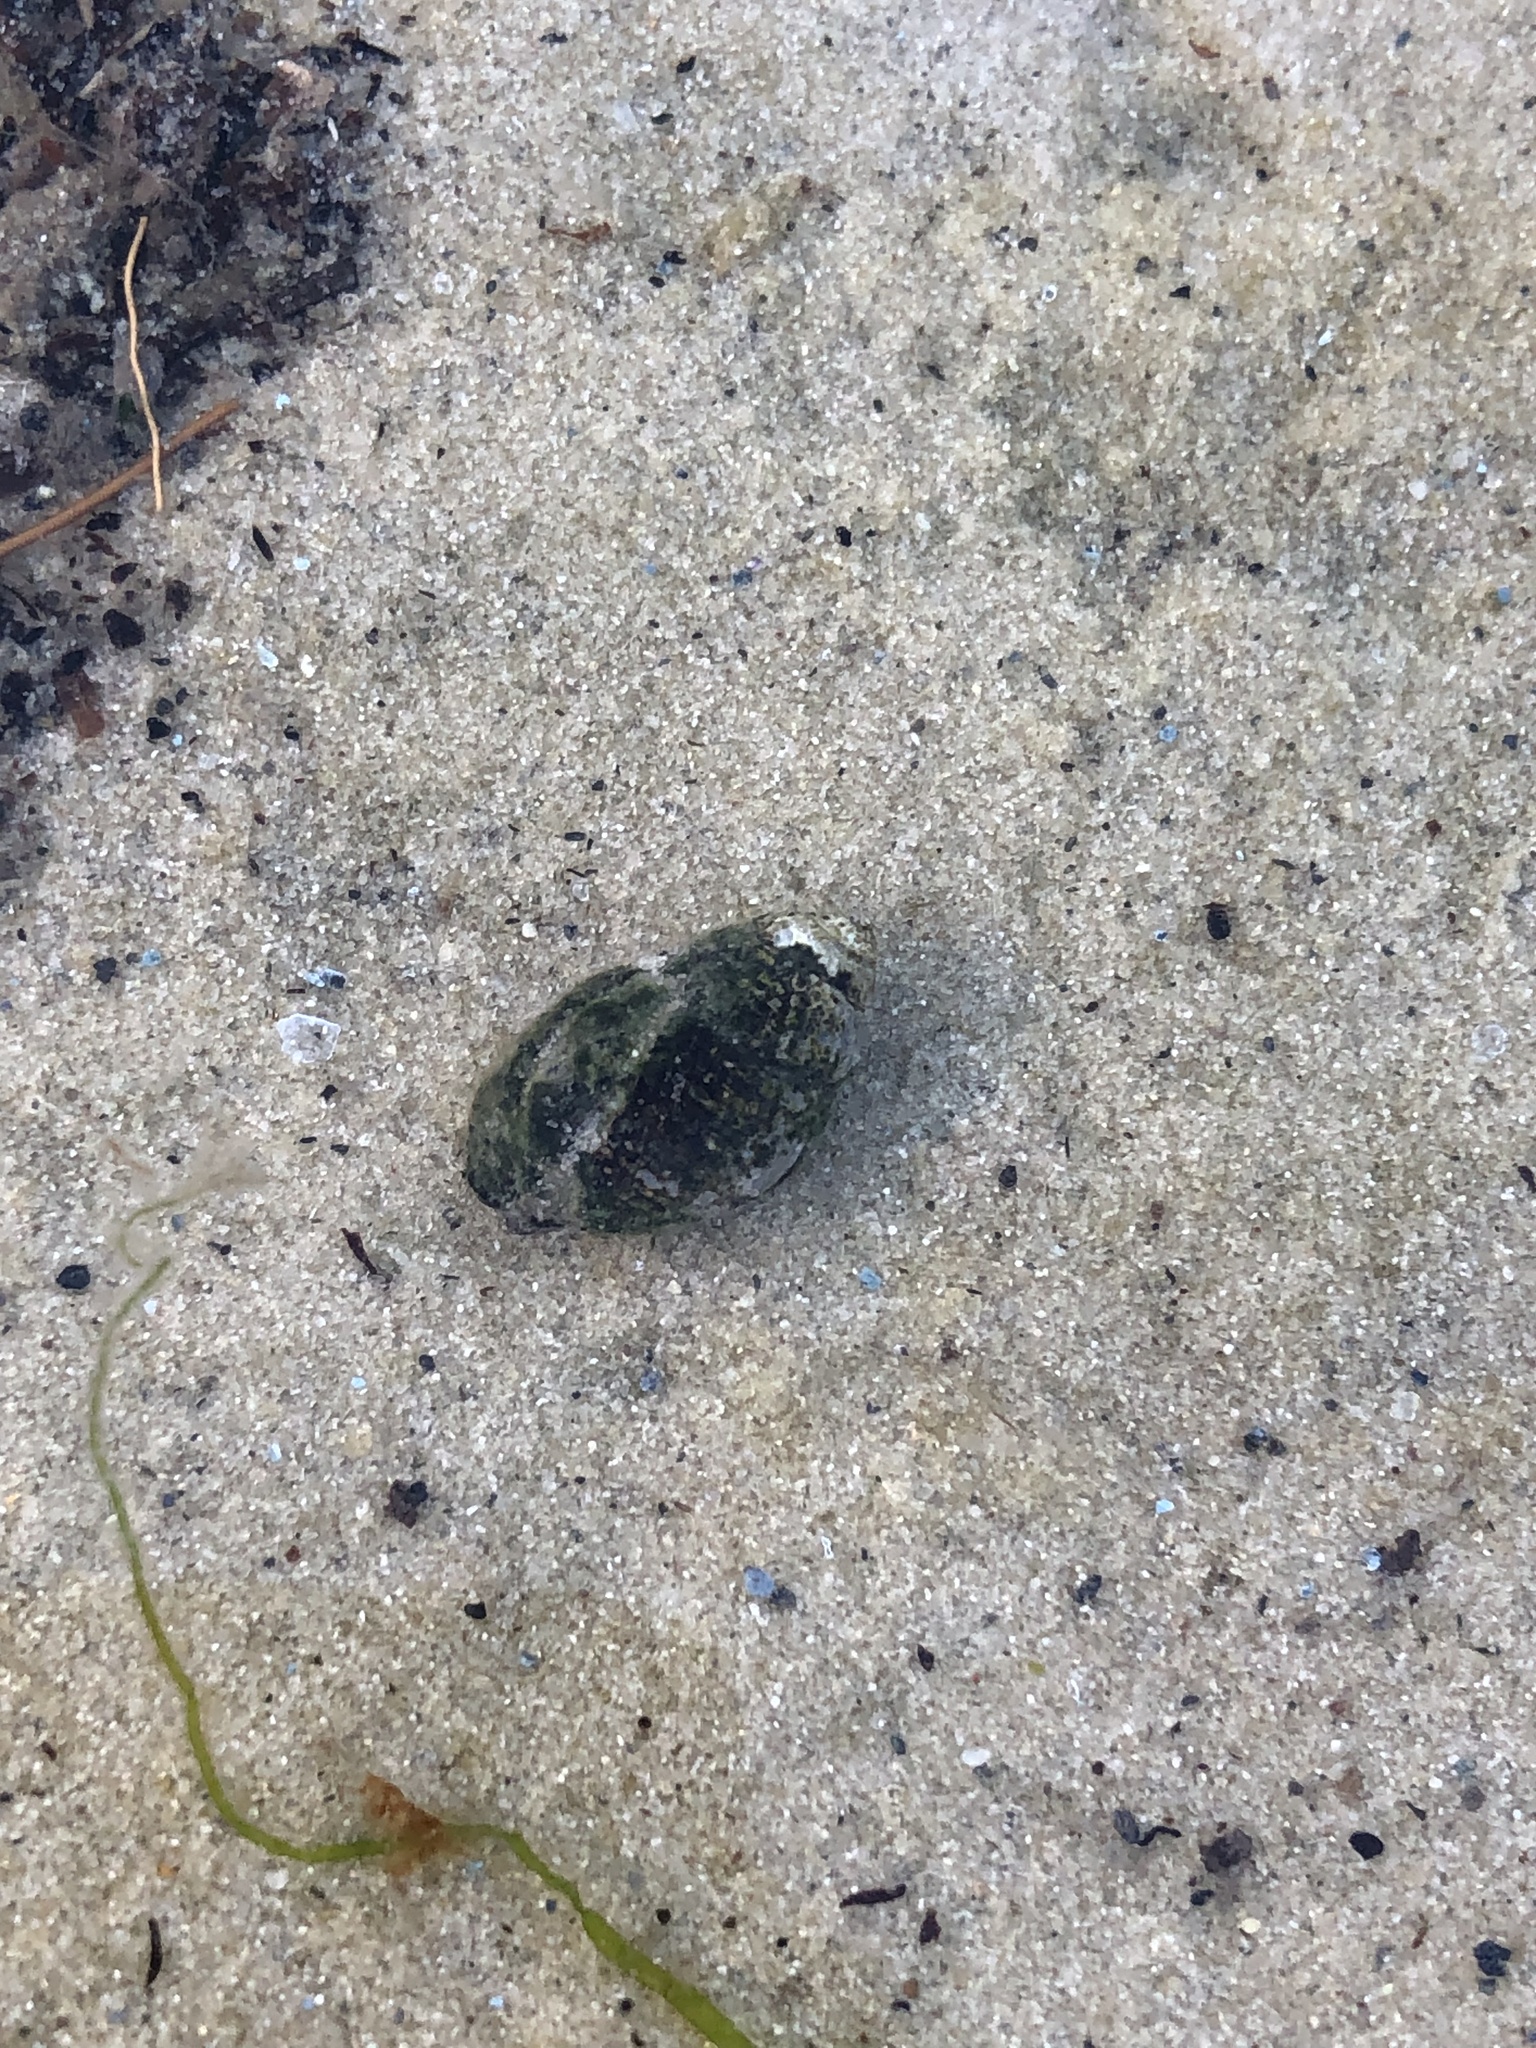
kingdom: Animalia
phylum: Mollusca
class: Gastropoda
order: Neogastropoda
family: Nassariidae
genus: Ilyanassa
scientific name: Ilyanassa obsoleta
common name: Eastern mudsnail
